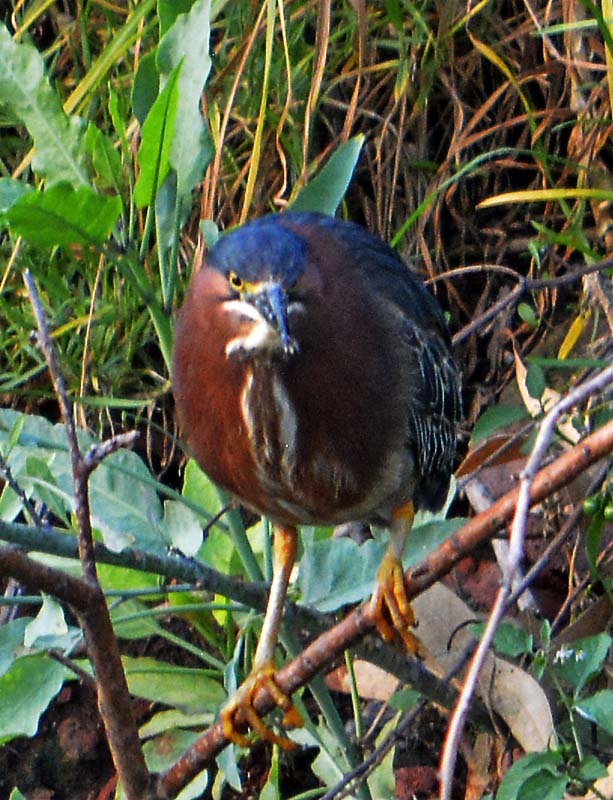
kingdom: Animalia
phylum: Chordata
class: Aves
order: Pelecaniformes
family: Ardeidae
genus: Butorides
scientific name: Butorides virescens
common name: Green heron
